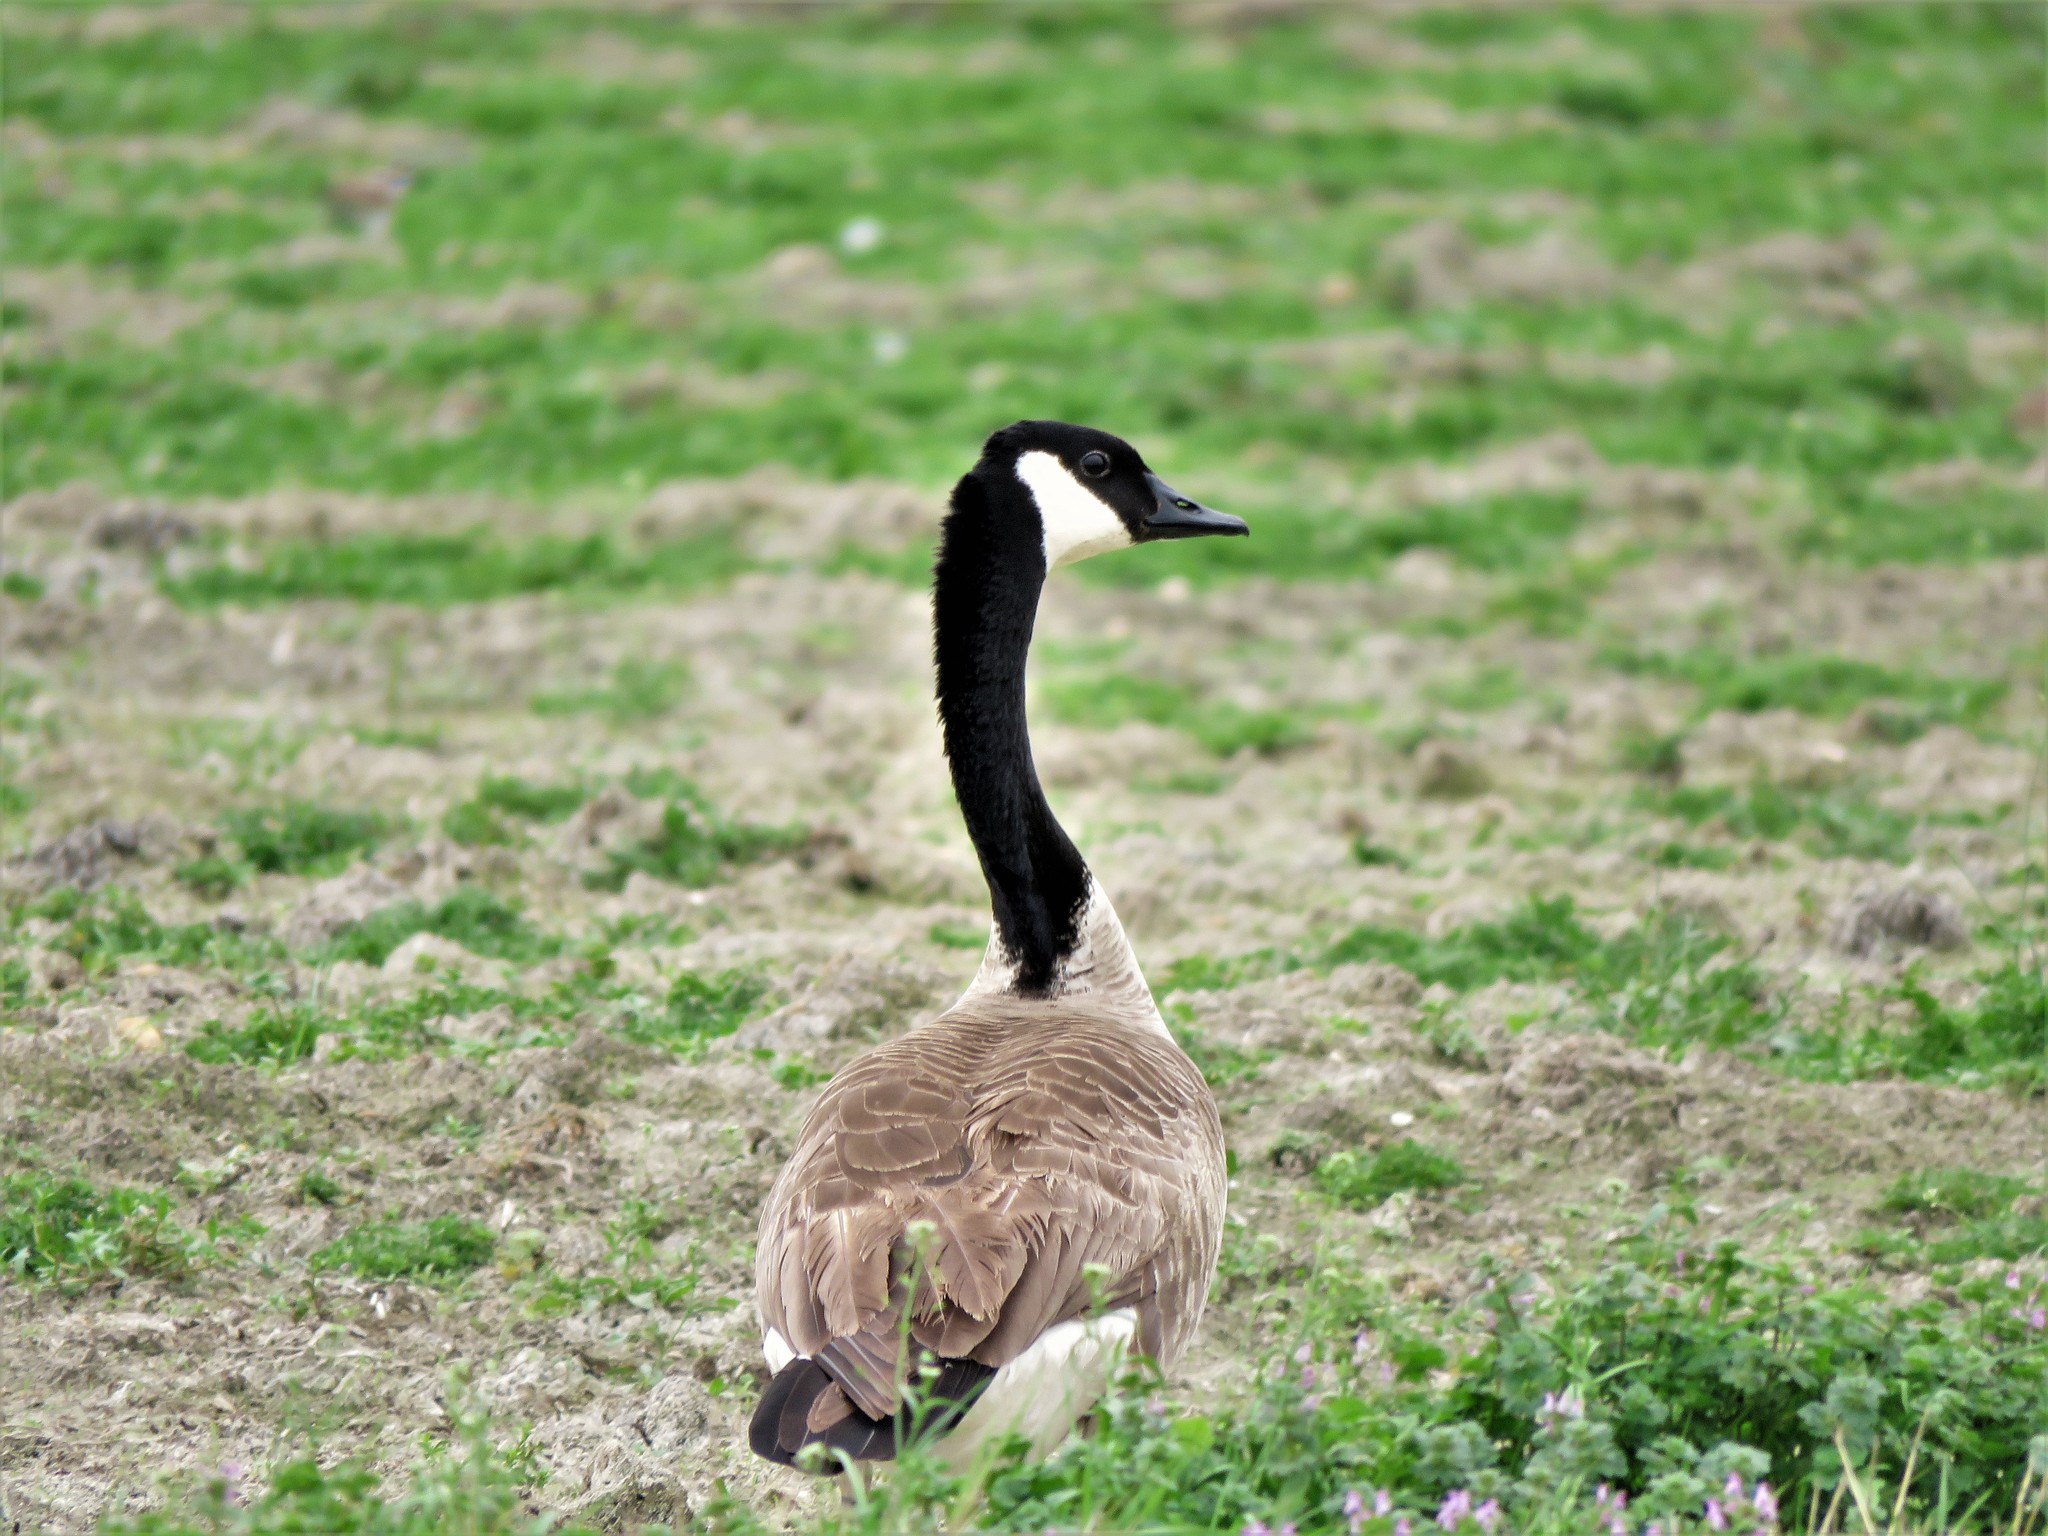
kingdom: Animalia
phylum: Chordata
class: Aves
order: Anseriformes
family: Anatidae
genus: Branta
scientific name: Branta canadensis
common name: Canada goose
